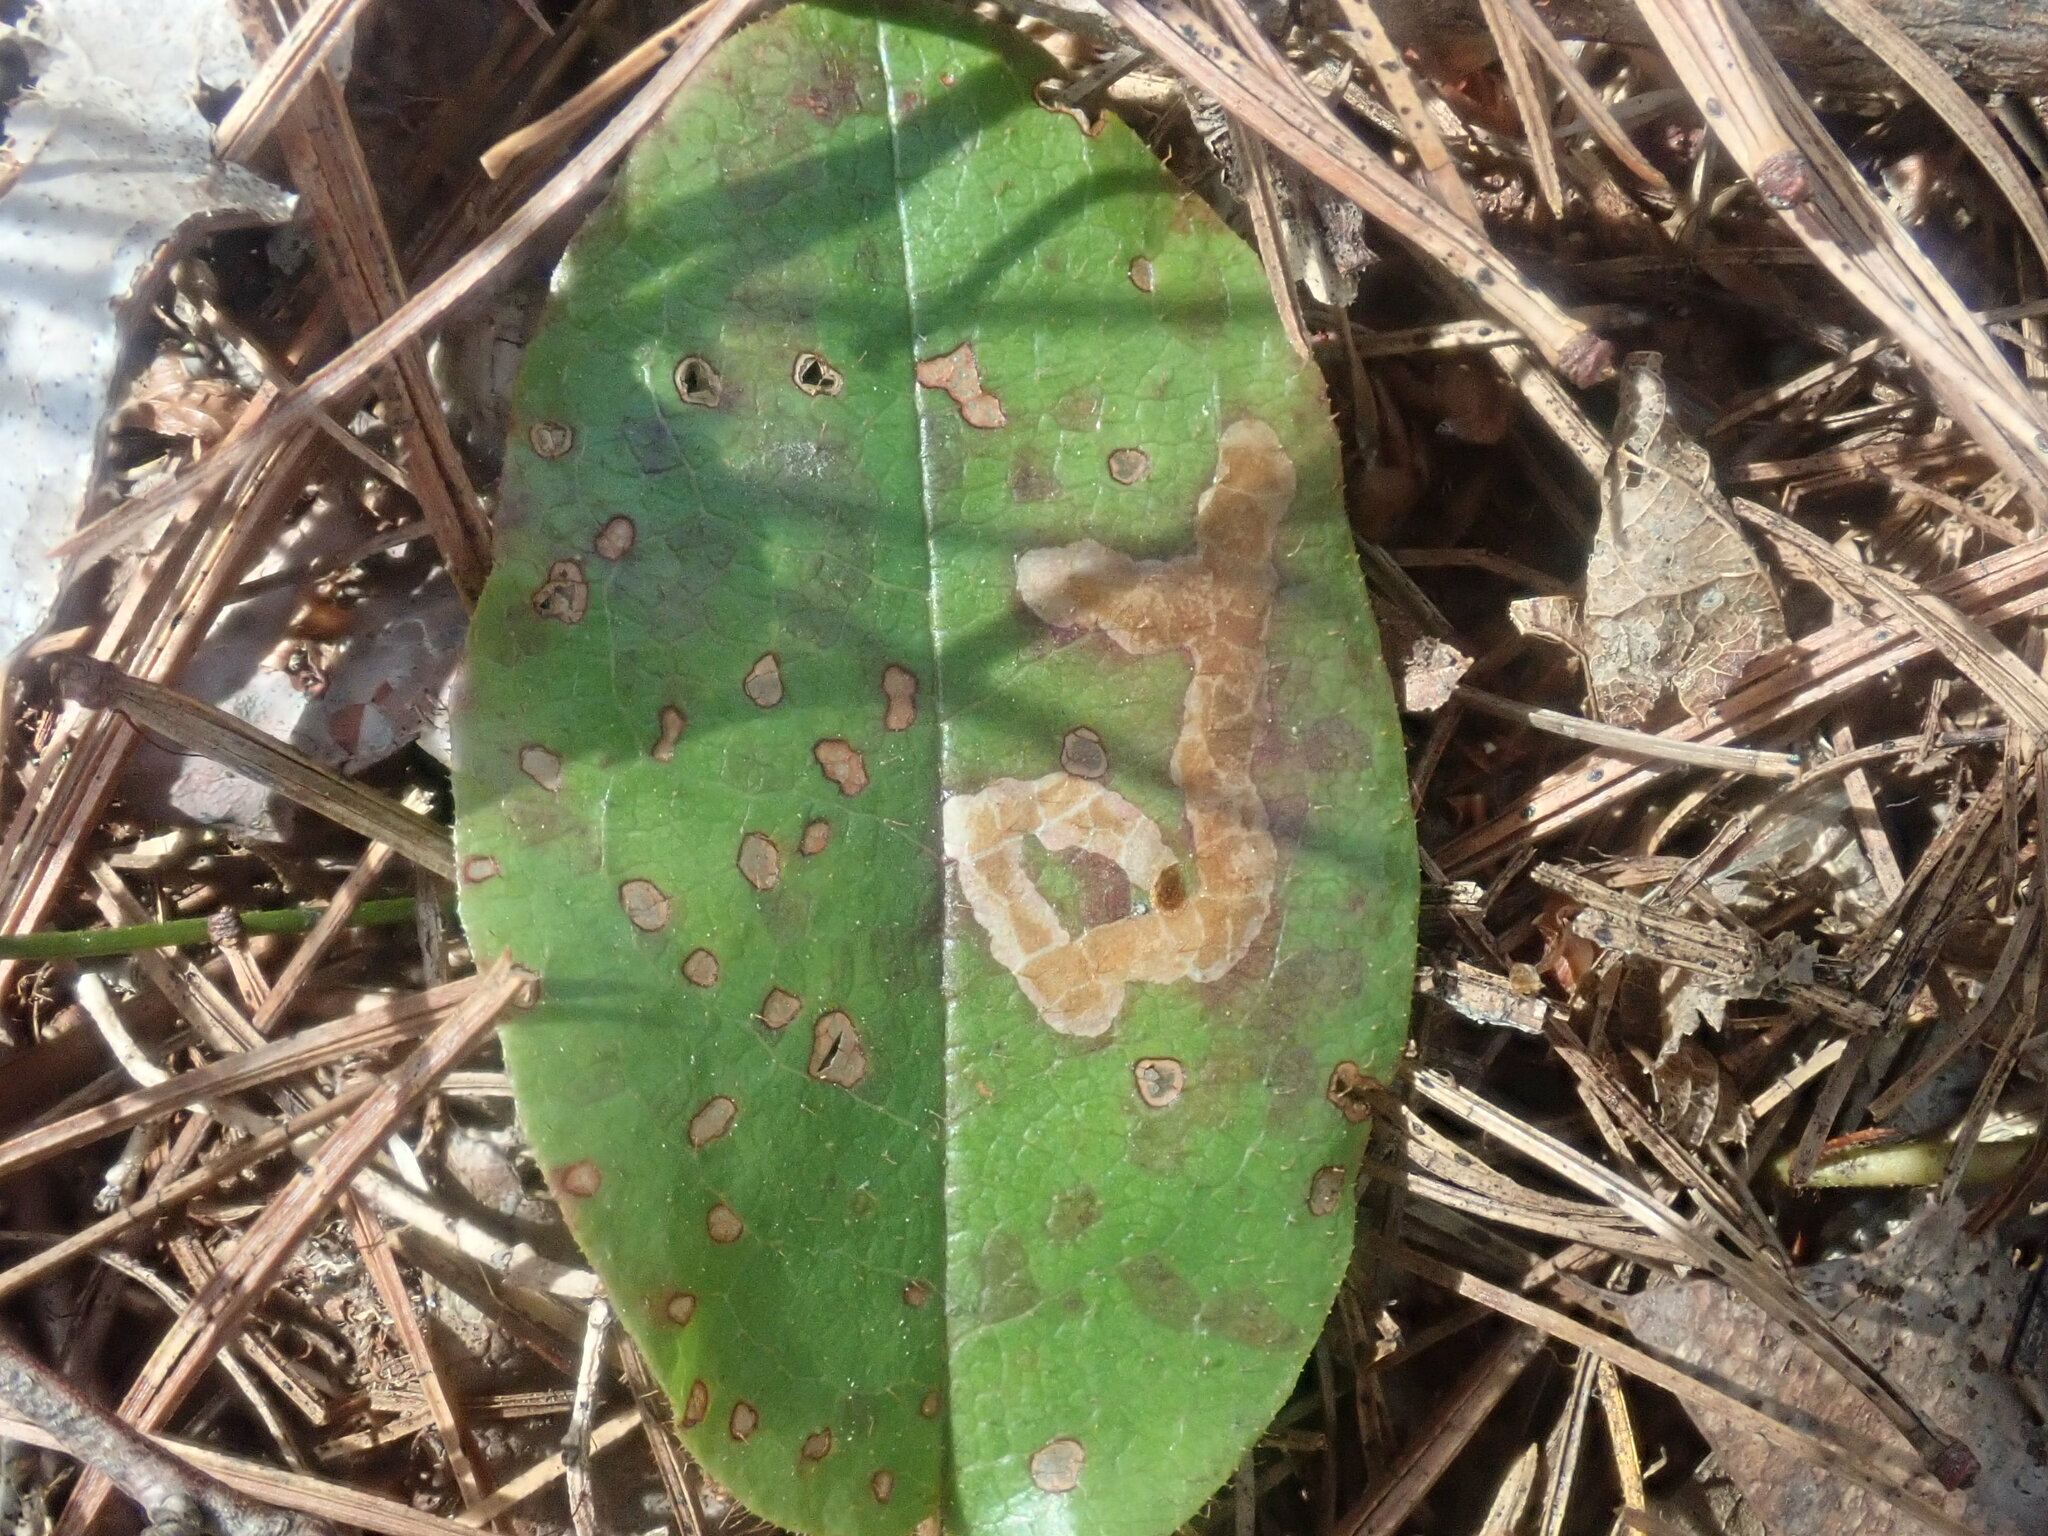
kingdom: Animalia
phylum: Arthropoda
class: Insecta
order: Coleoptera
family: Buprestidae
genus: Brachys
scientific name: Brachys
